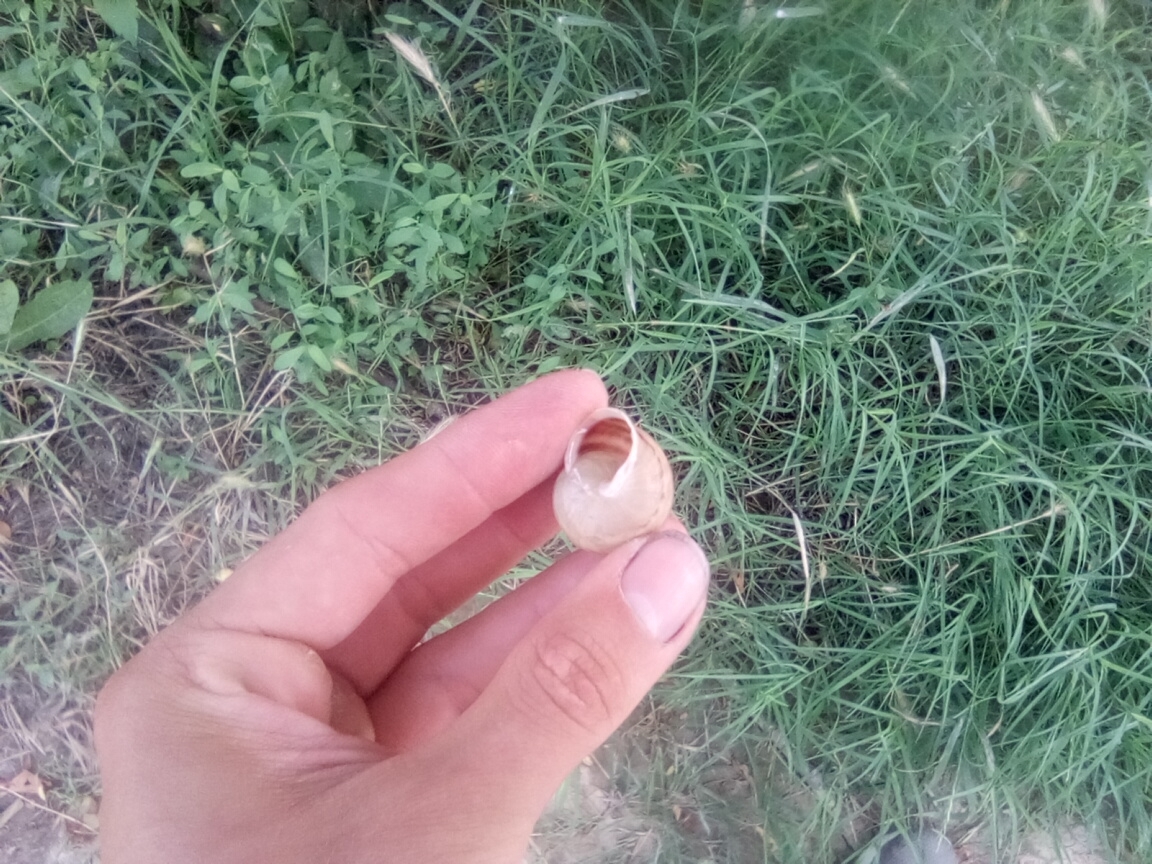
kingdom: Animalia
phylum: Mollusca
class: Gastropoda
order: Stylommatophora
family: Helicidae
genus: Eobania
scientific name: Eobania vermiculata
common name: Chocolateband snail
